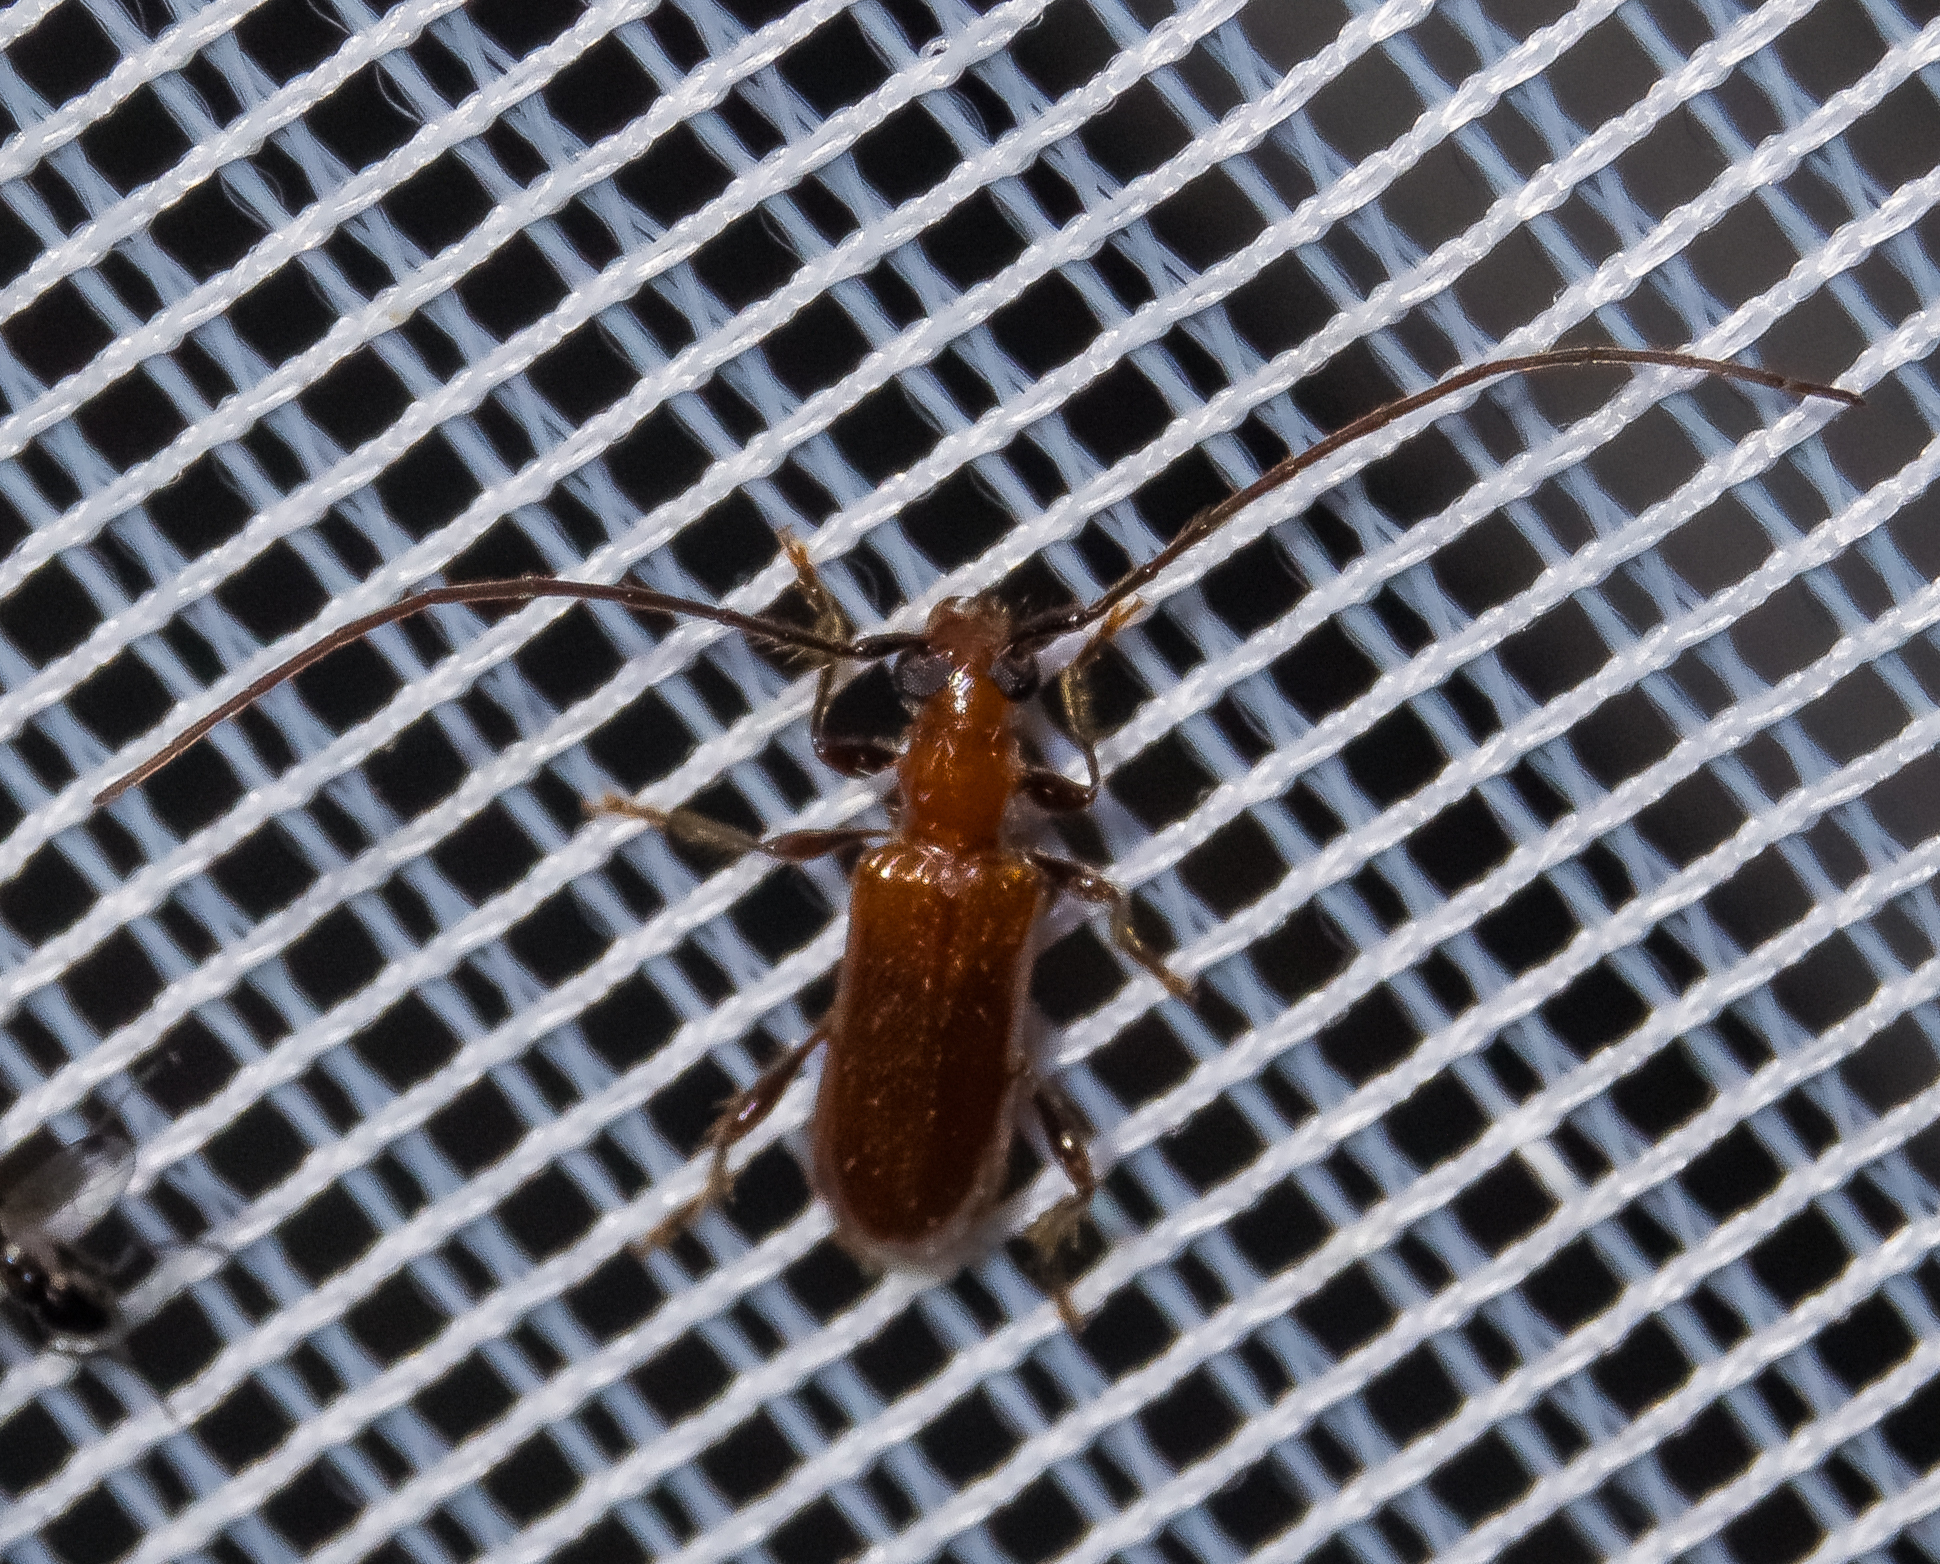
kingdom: Animalia
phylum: Arthropoda
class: Insecta
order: Coleoptera
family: Cerambycidae
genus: Obrium
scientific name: Obrium cantharinum
